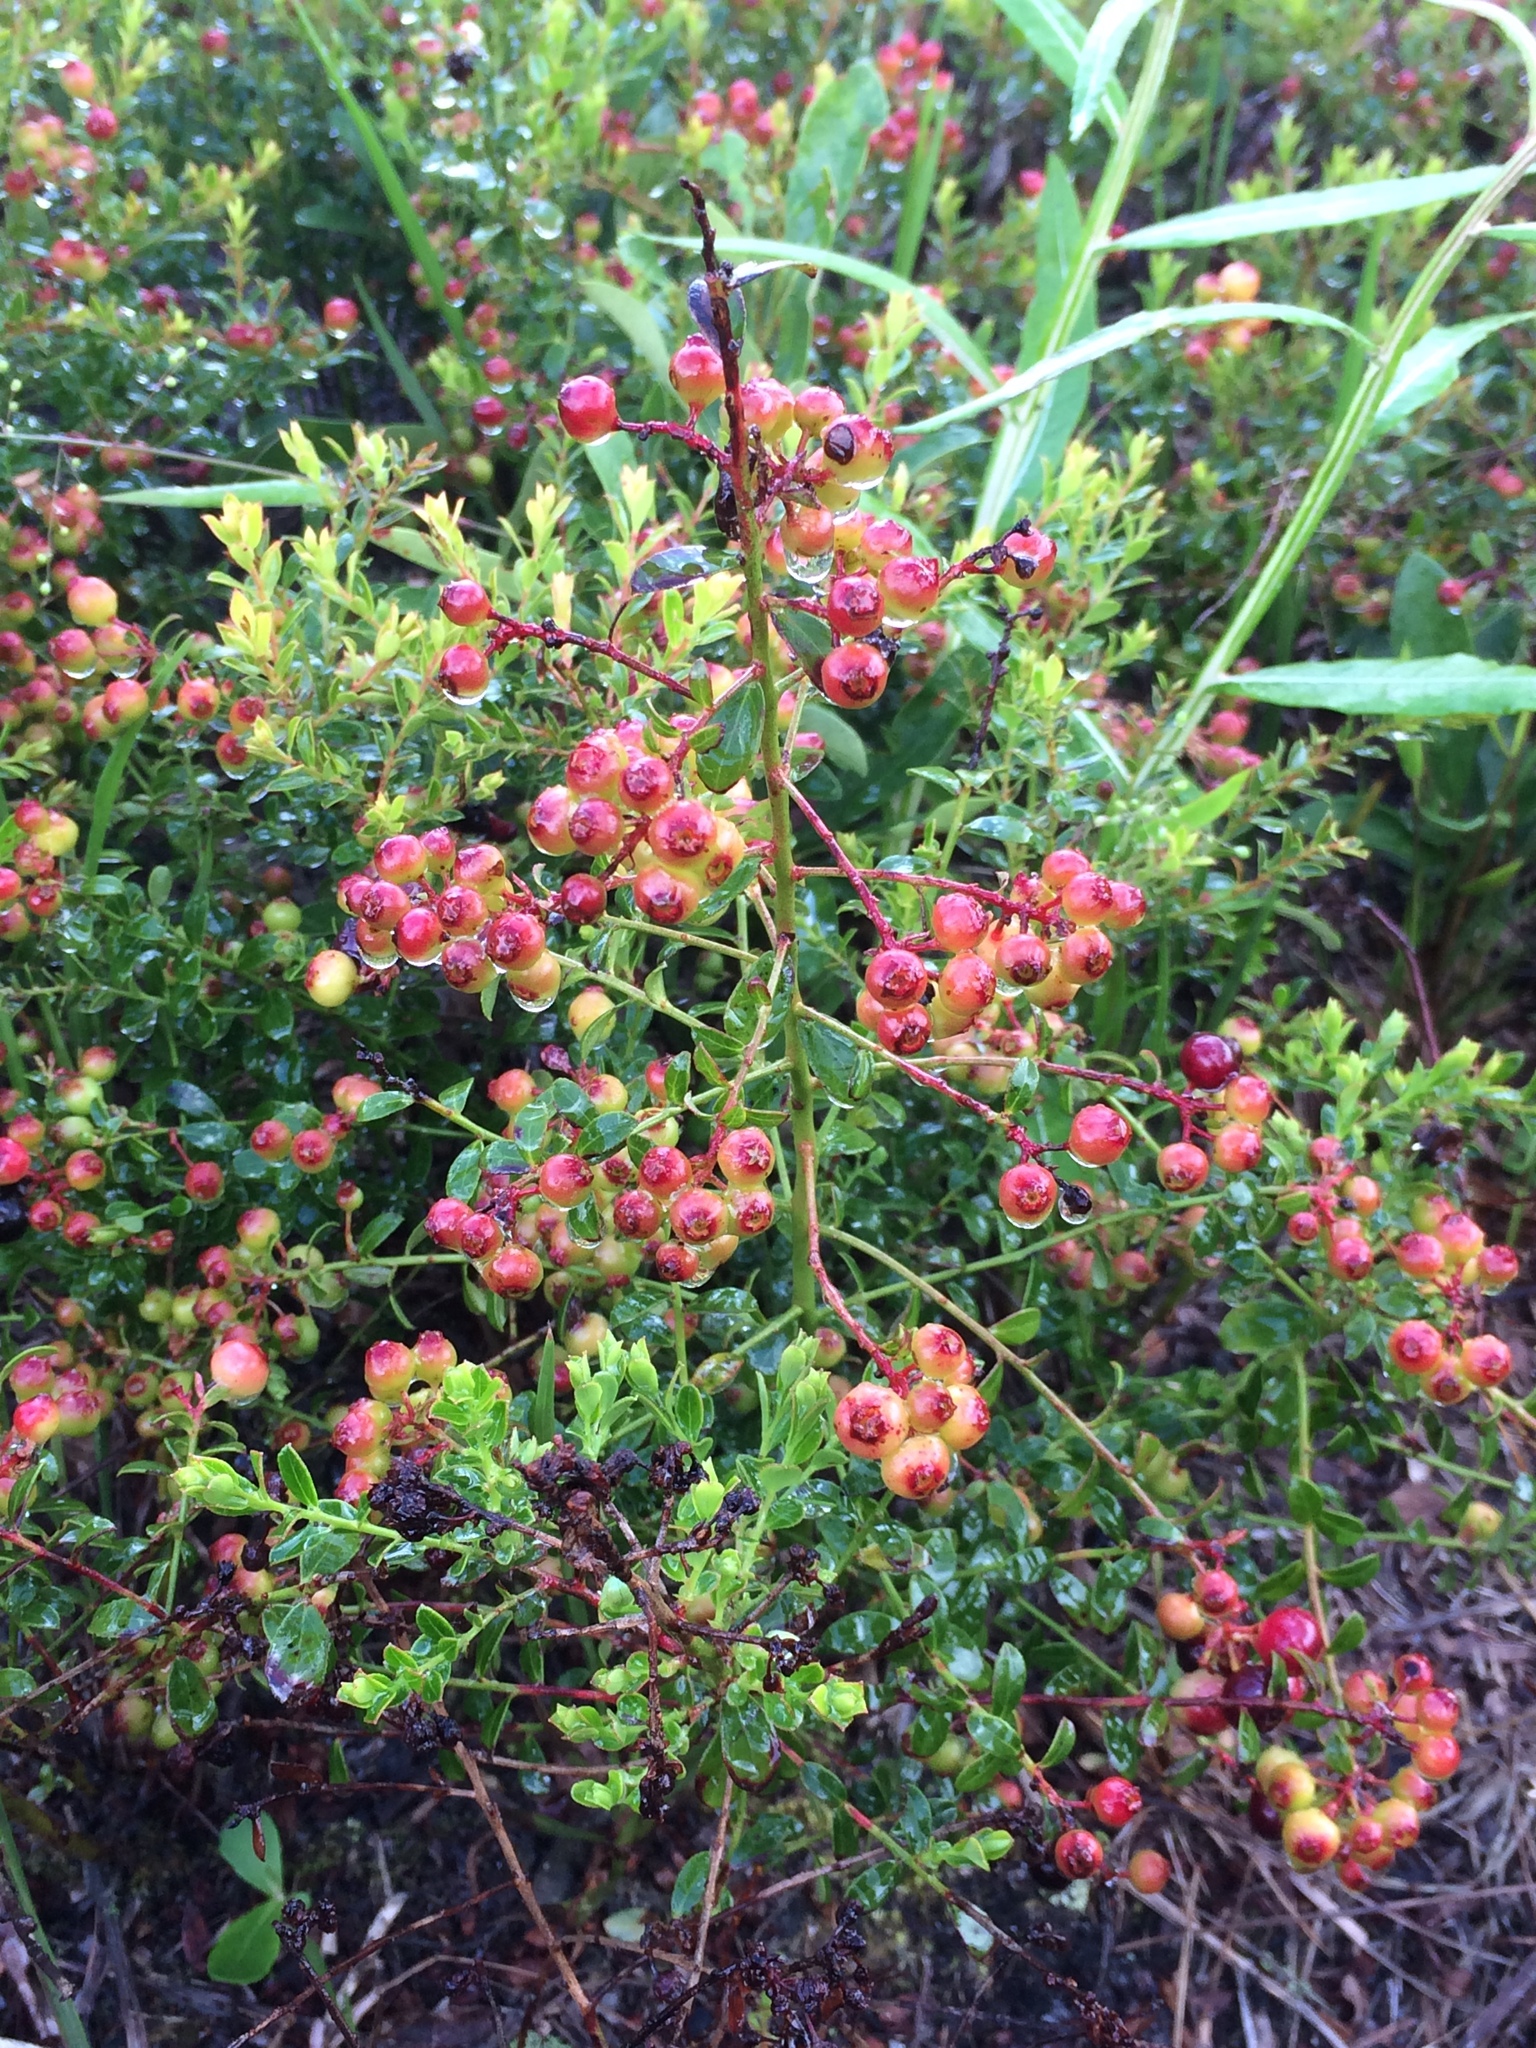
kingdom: Plantae
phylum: Tracheophyta
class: Magnoliopsida
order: Ericales
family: Ericaceae
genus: Vaccinium
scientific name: Vaccinium myrsinites
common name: Evergreen blueberry
